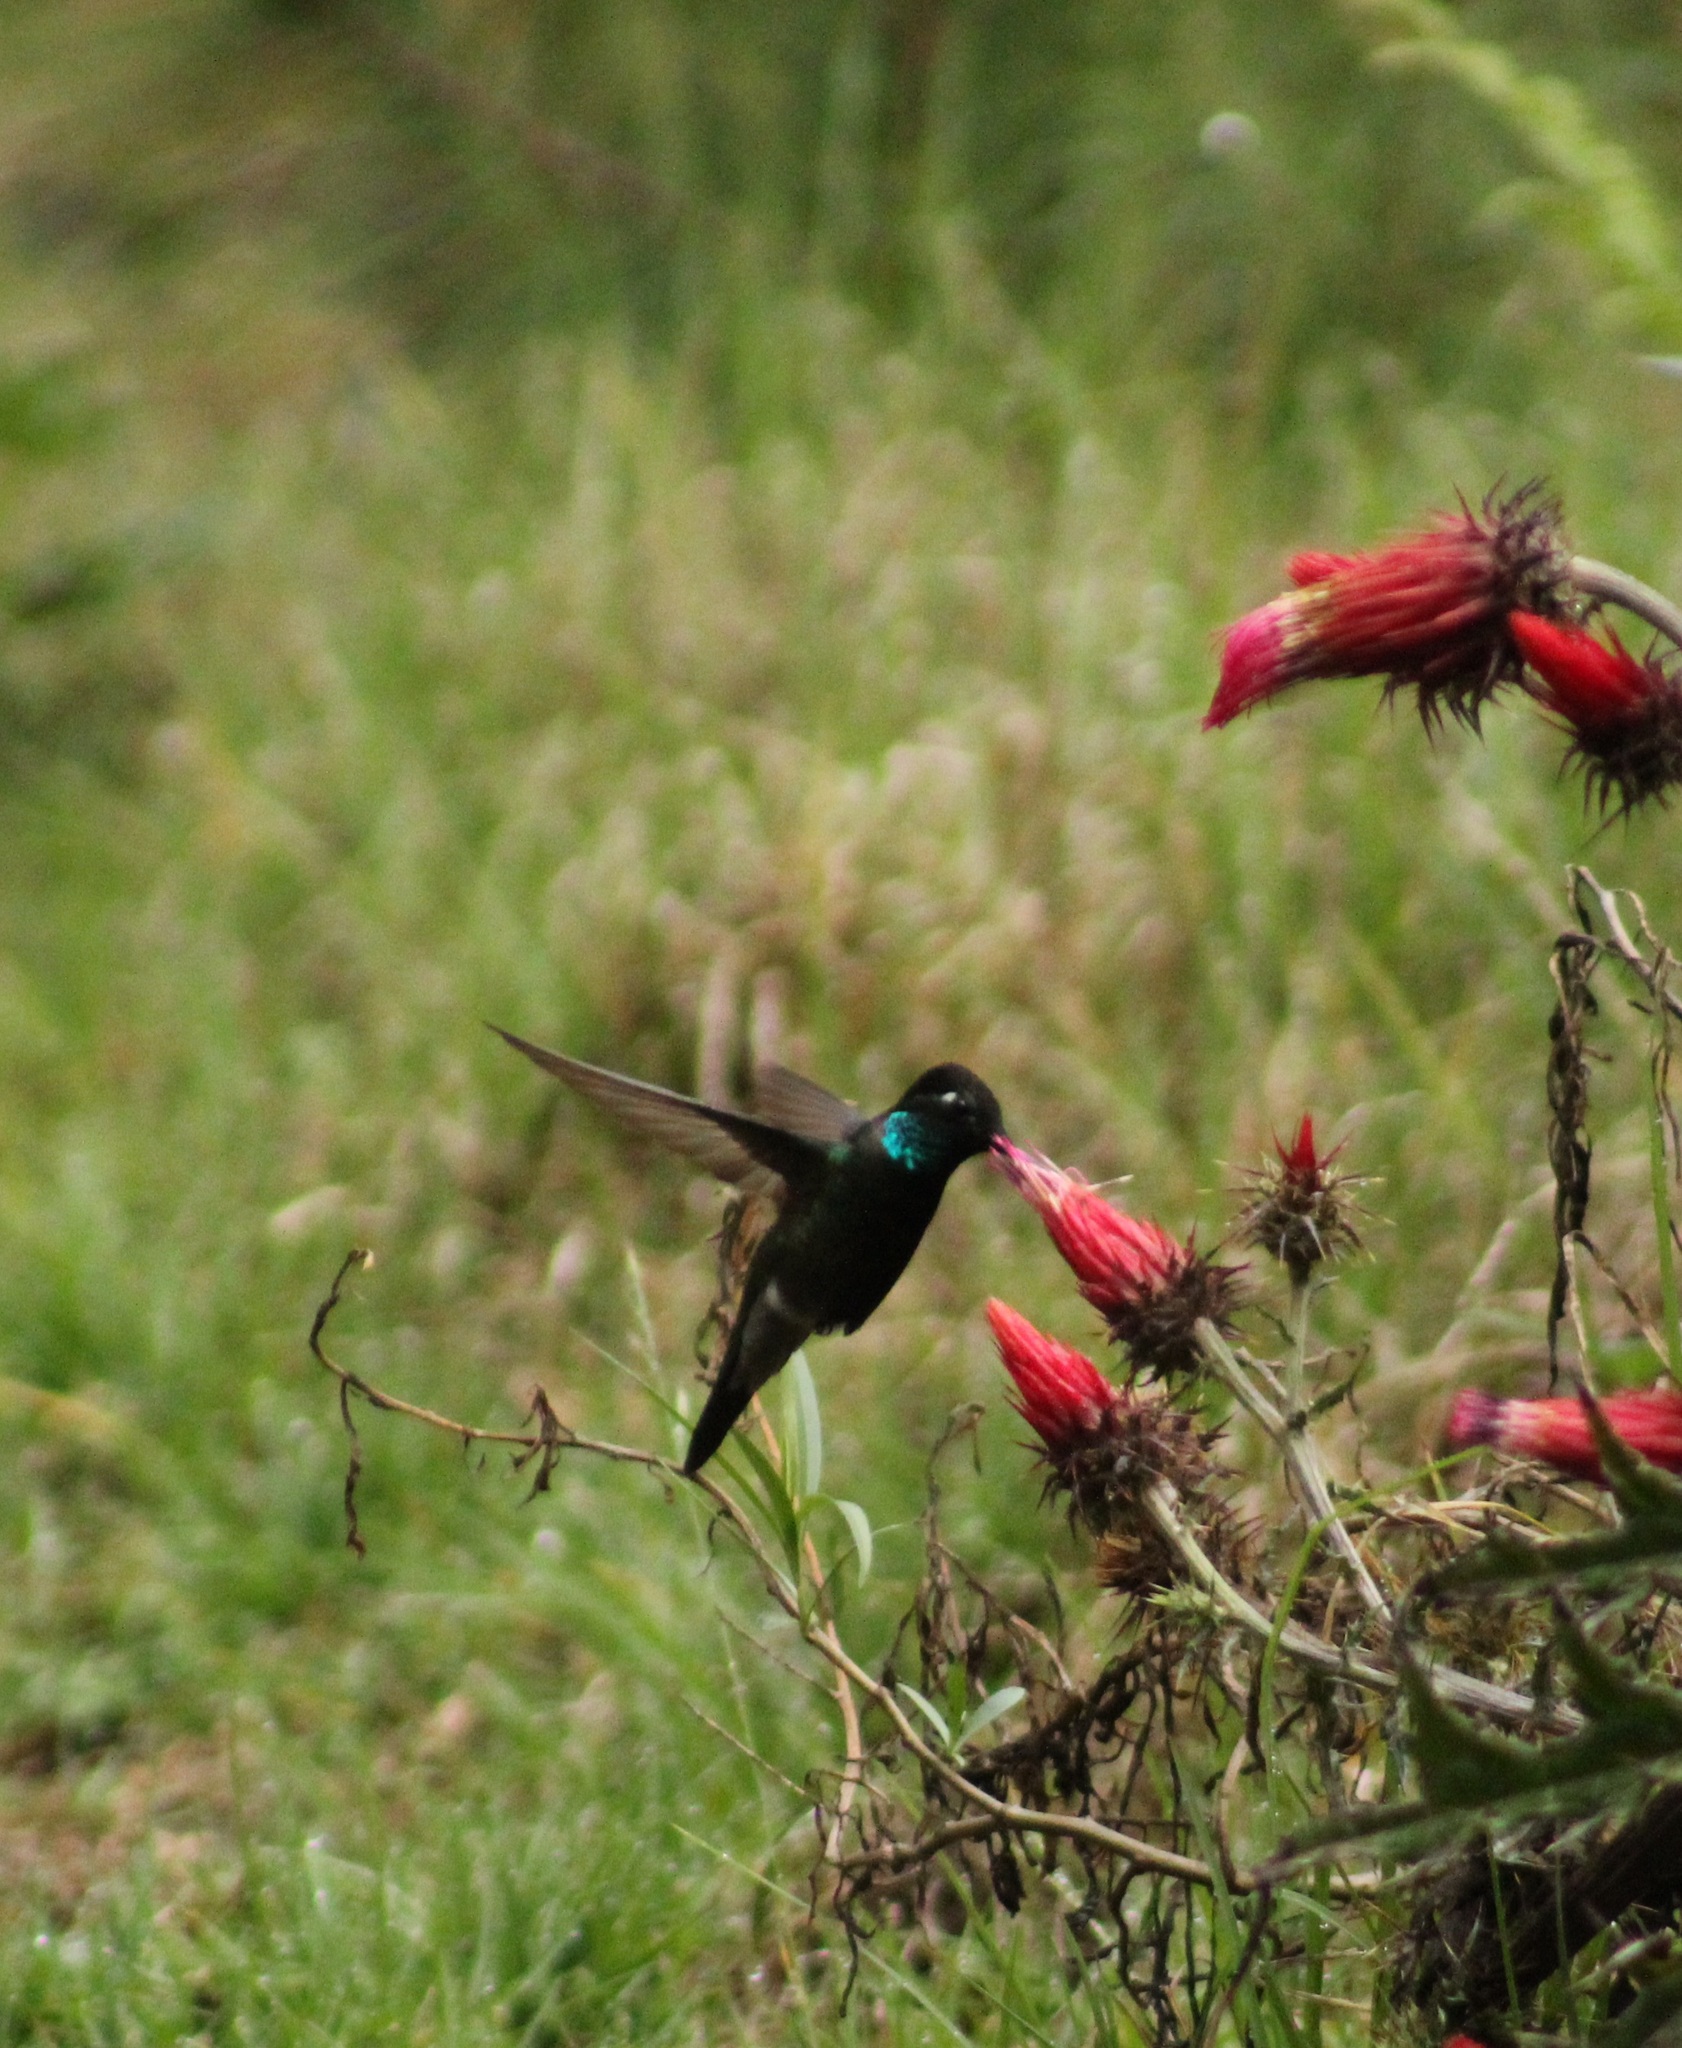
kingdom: Animalia
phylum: Chordata
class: Aves
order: Apodiformes
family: Trochilidae
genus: Eugenes
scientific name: Eugenes fulgens
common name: Magnificent hummingbird
